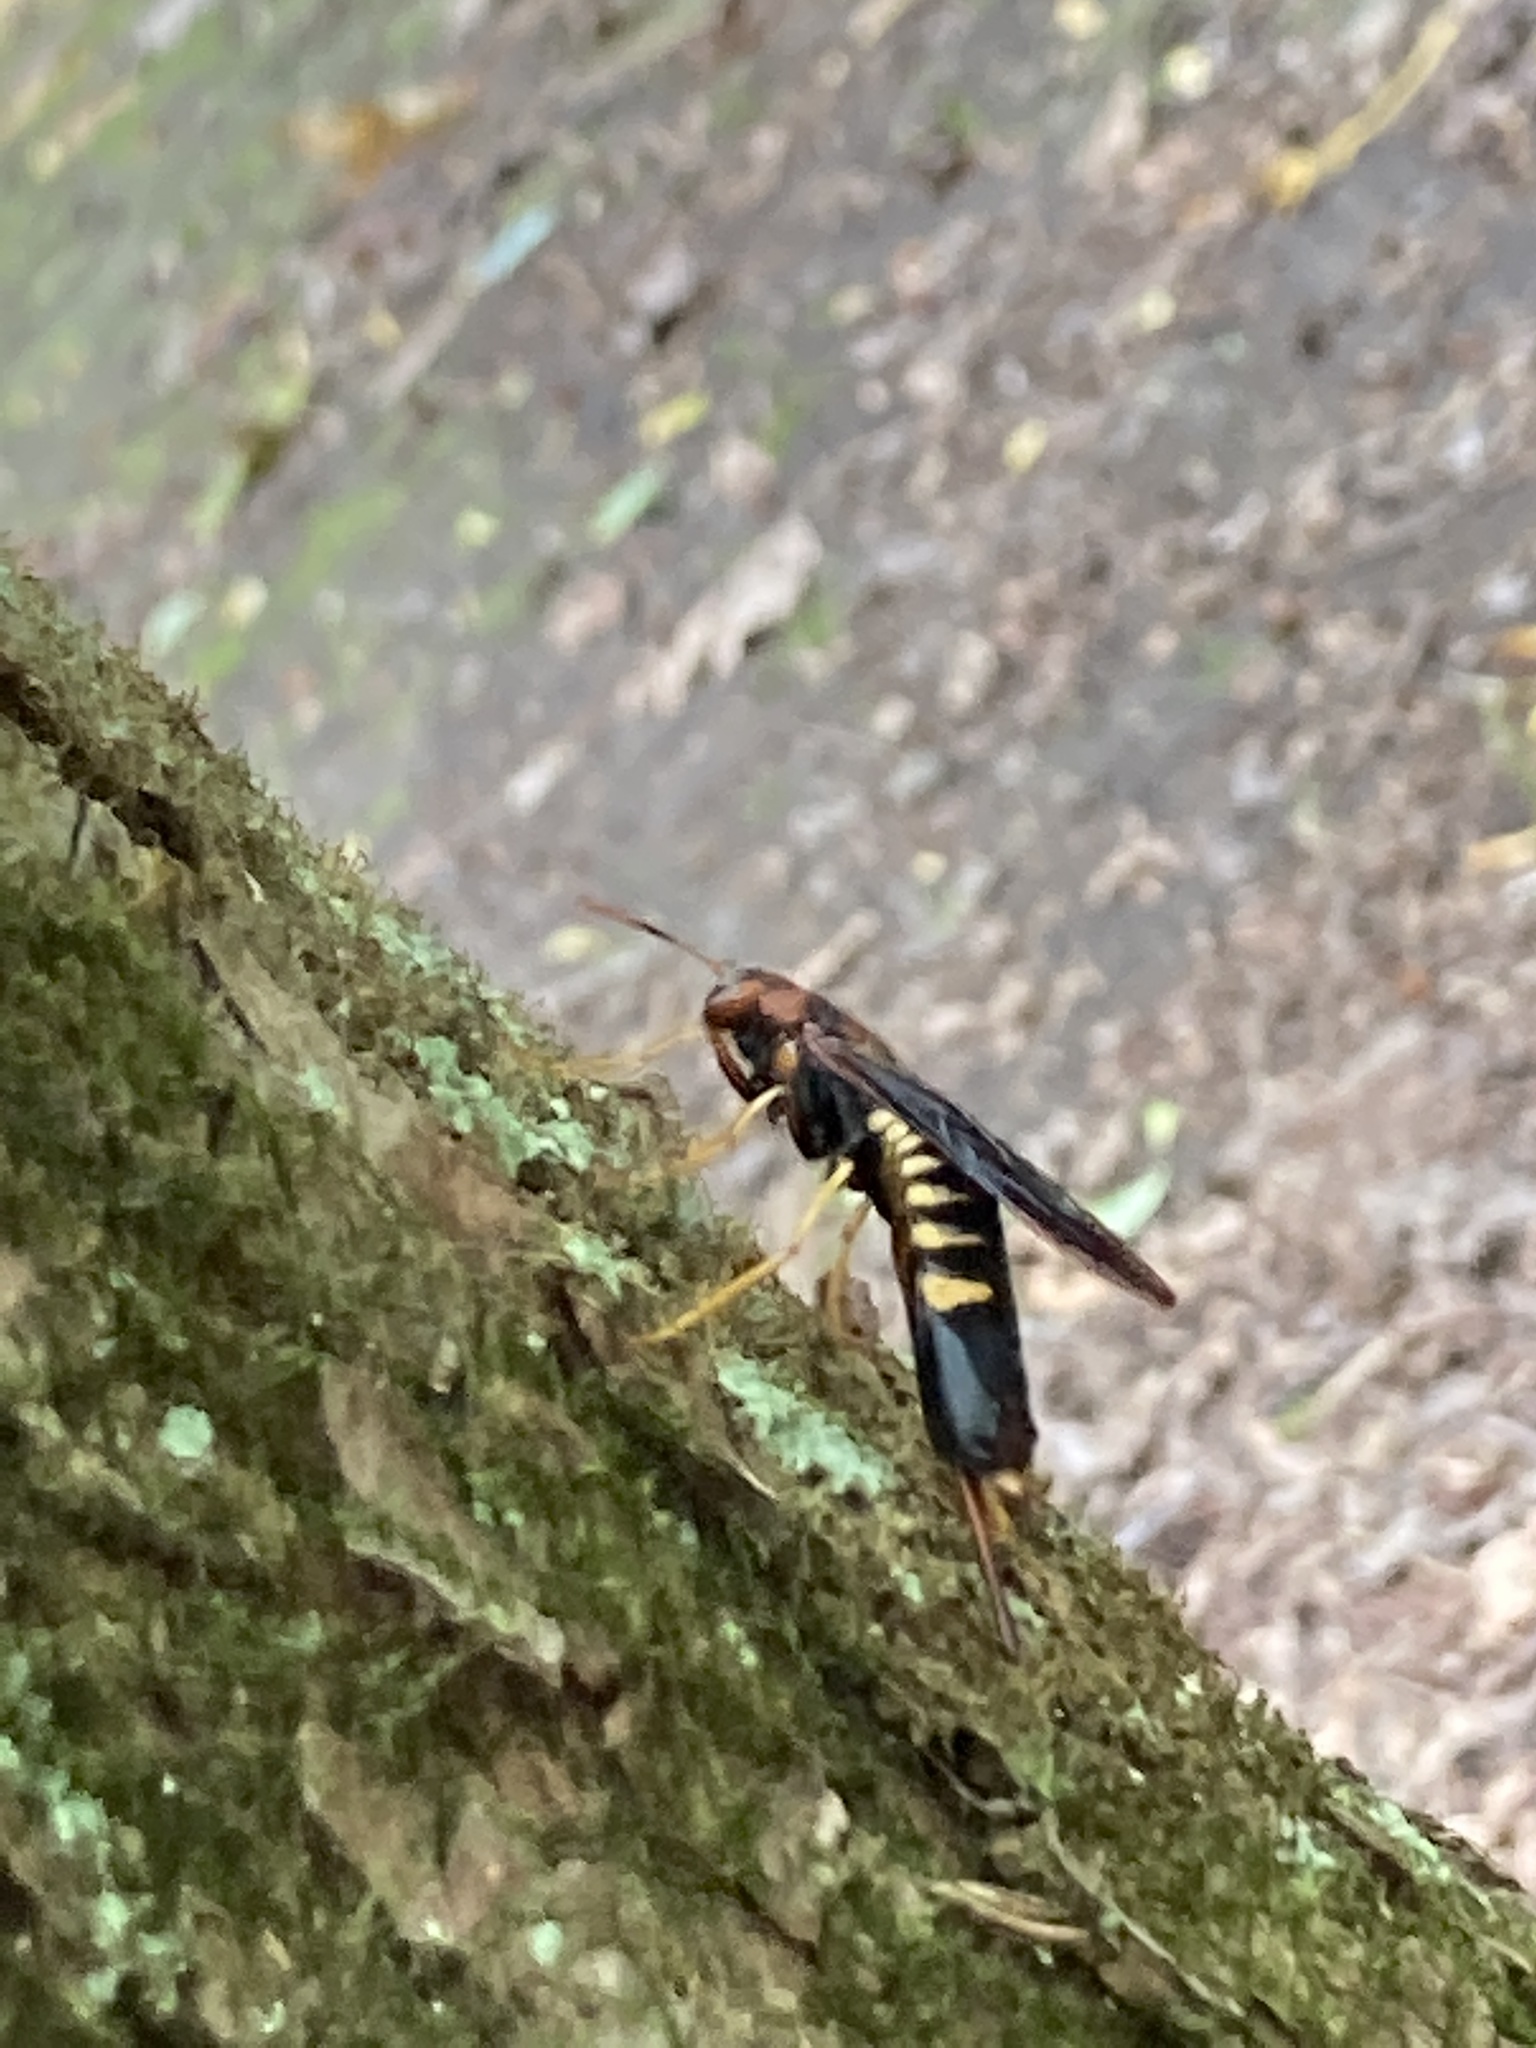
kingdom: Animalia
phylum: Arthropoda
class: Insecta
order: Hymenoptera
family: Siricidae
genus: Tremex
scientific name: Tremex columba
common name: Wasp
